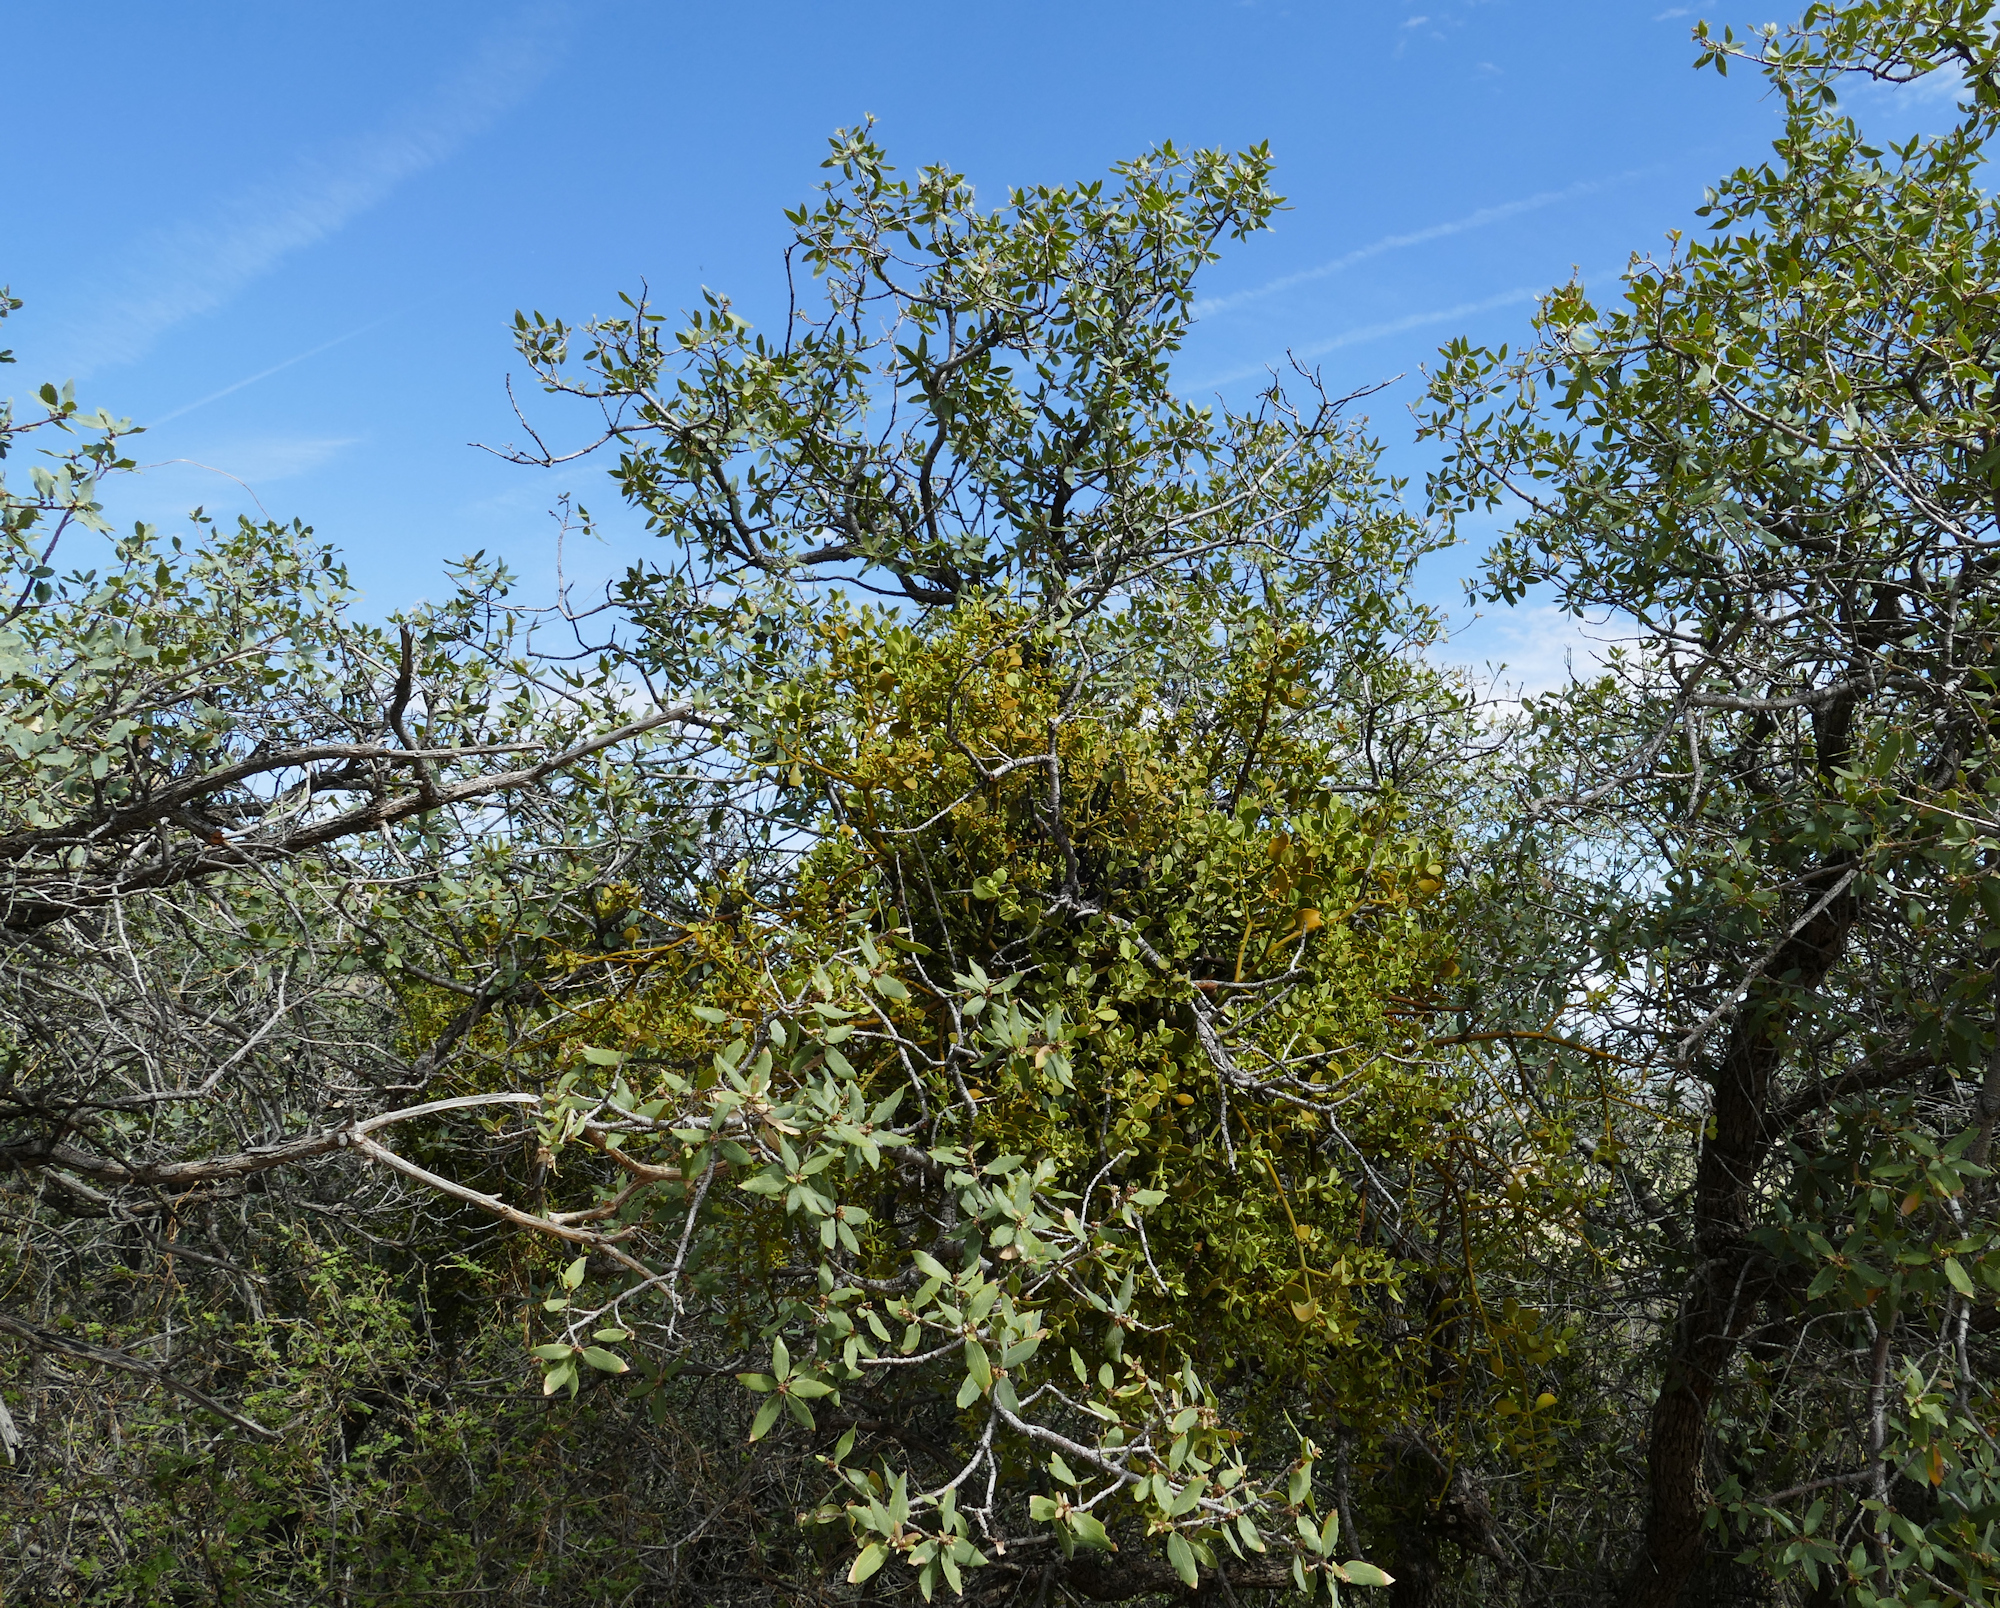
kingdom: Plantae
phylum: Tracheophyta
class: Magnoliopsida
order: Santalales
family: Viscaceae
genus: Phoradendron
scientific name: Phoradendron coryae
